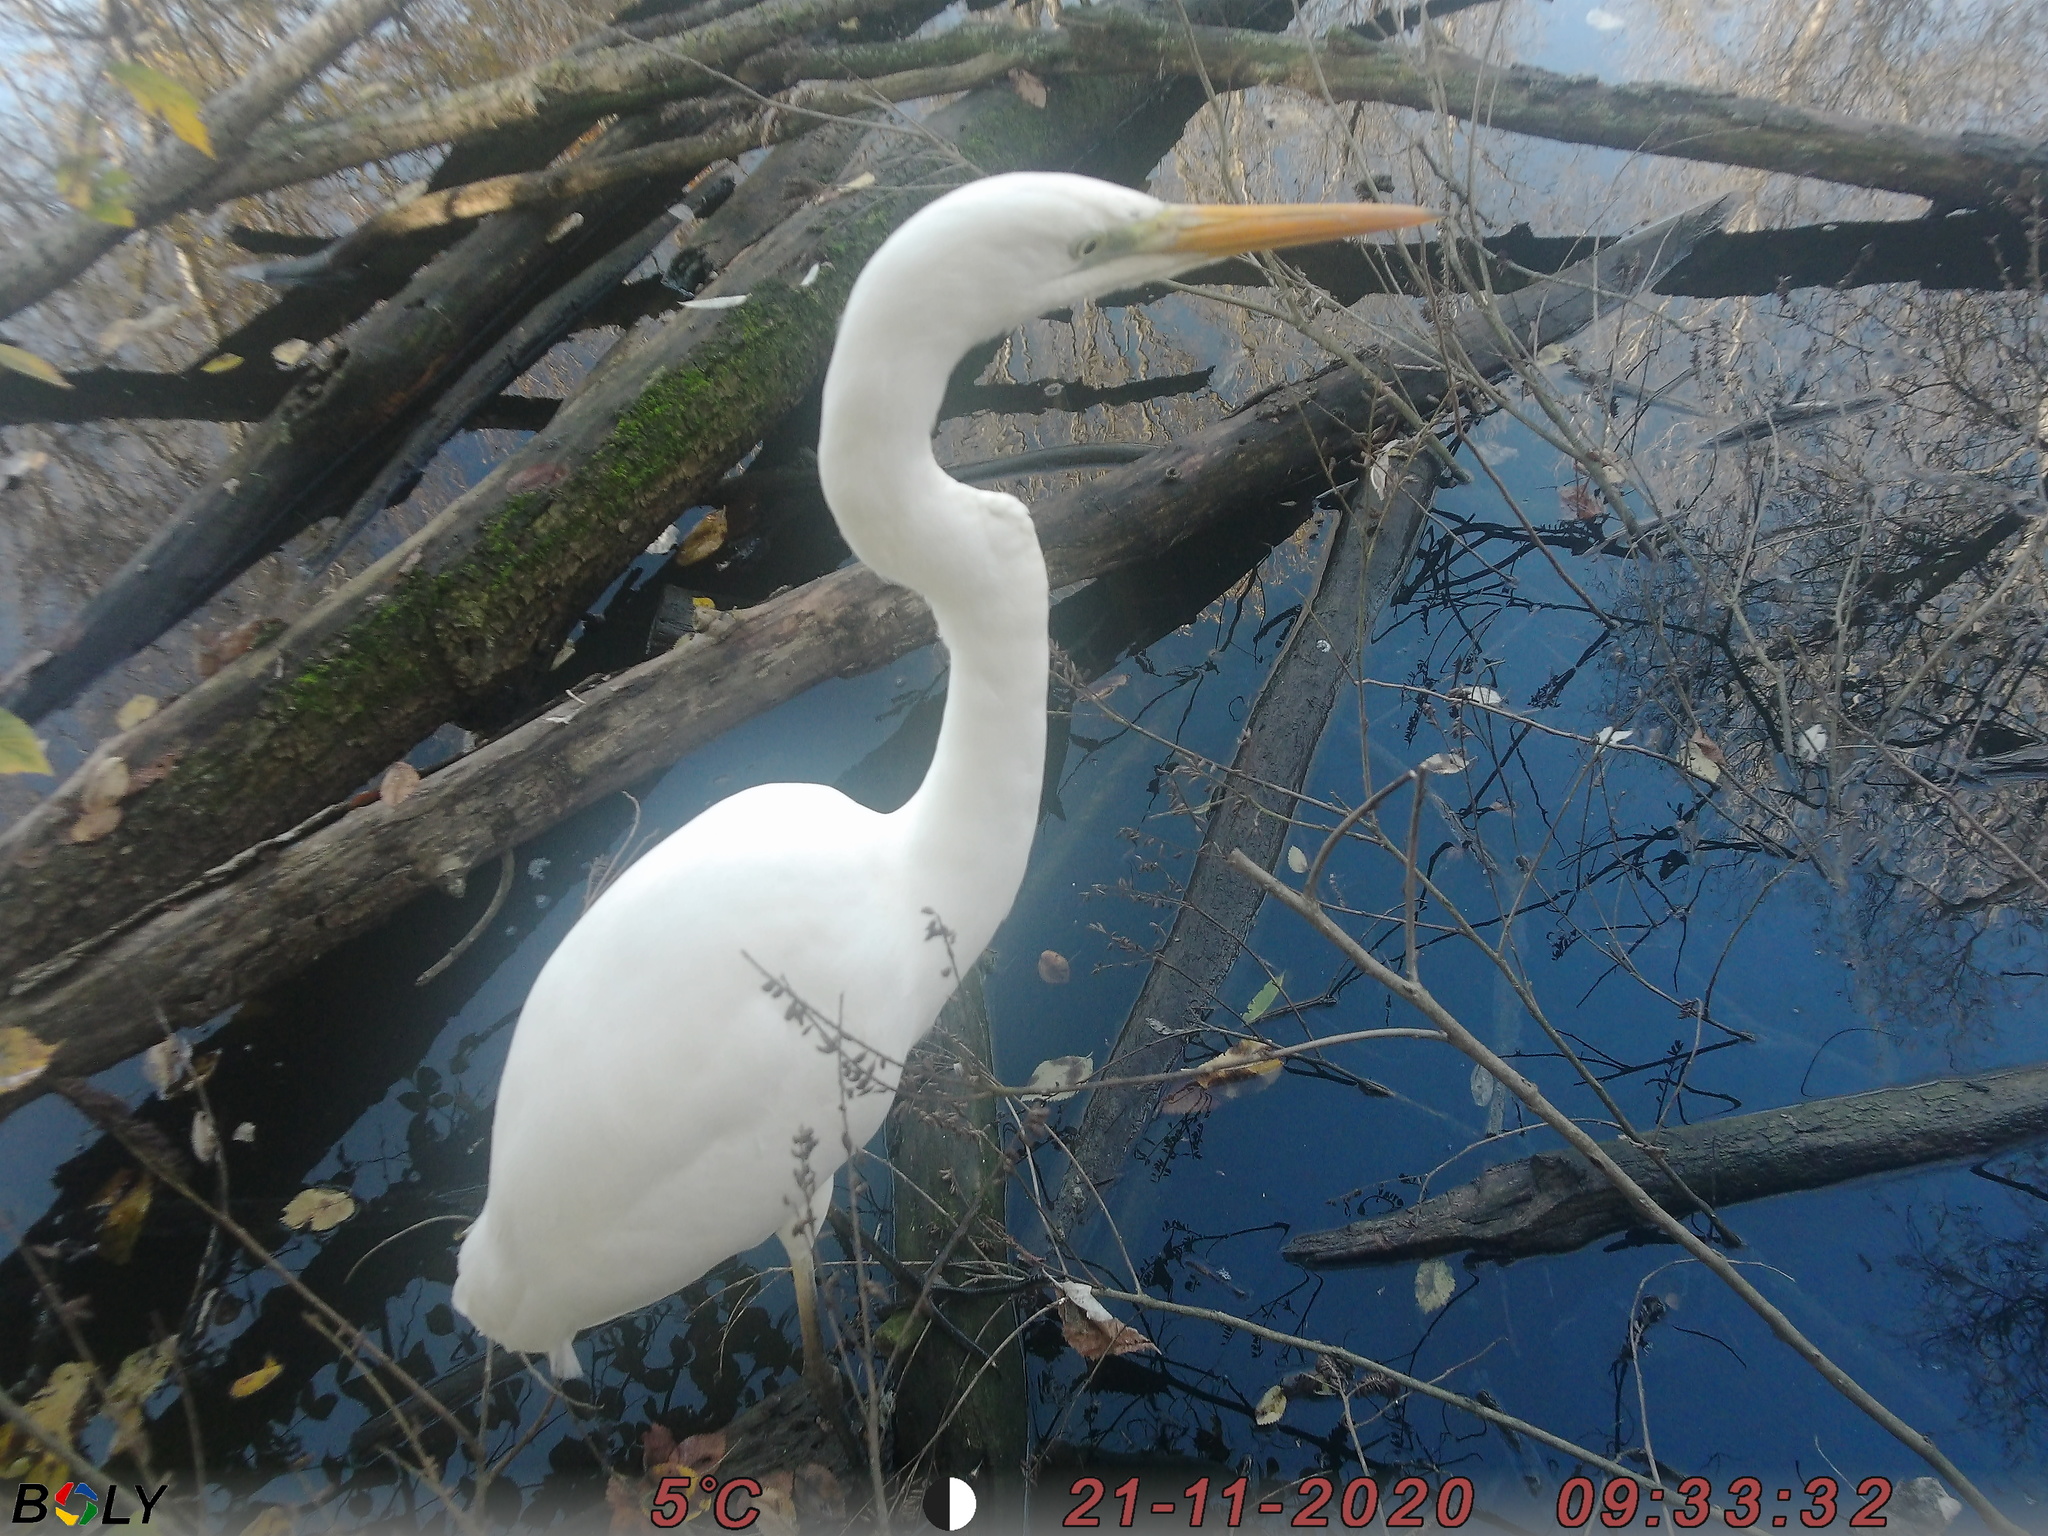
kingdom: Animalia
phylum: Chordata
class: Aves
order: Pelecaniformes
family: Ardeidae
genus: Ardea
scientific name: Ardea alba
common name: Great egret
